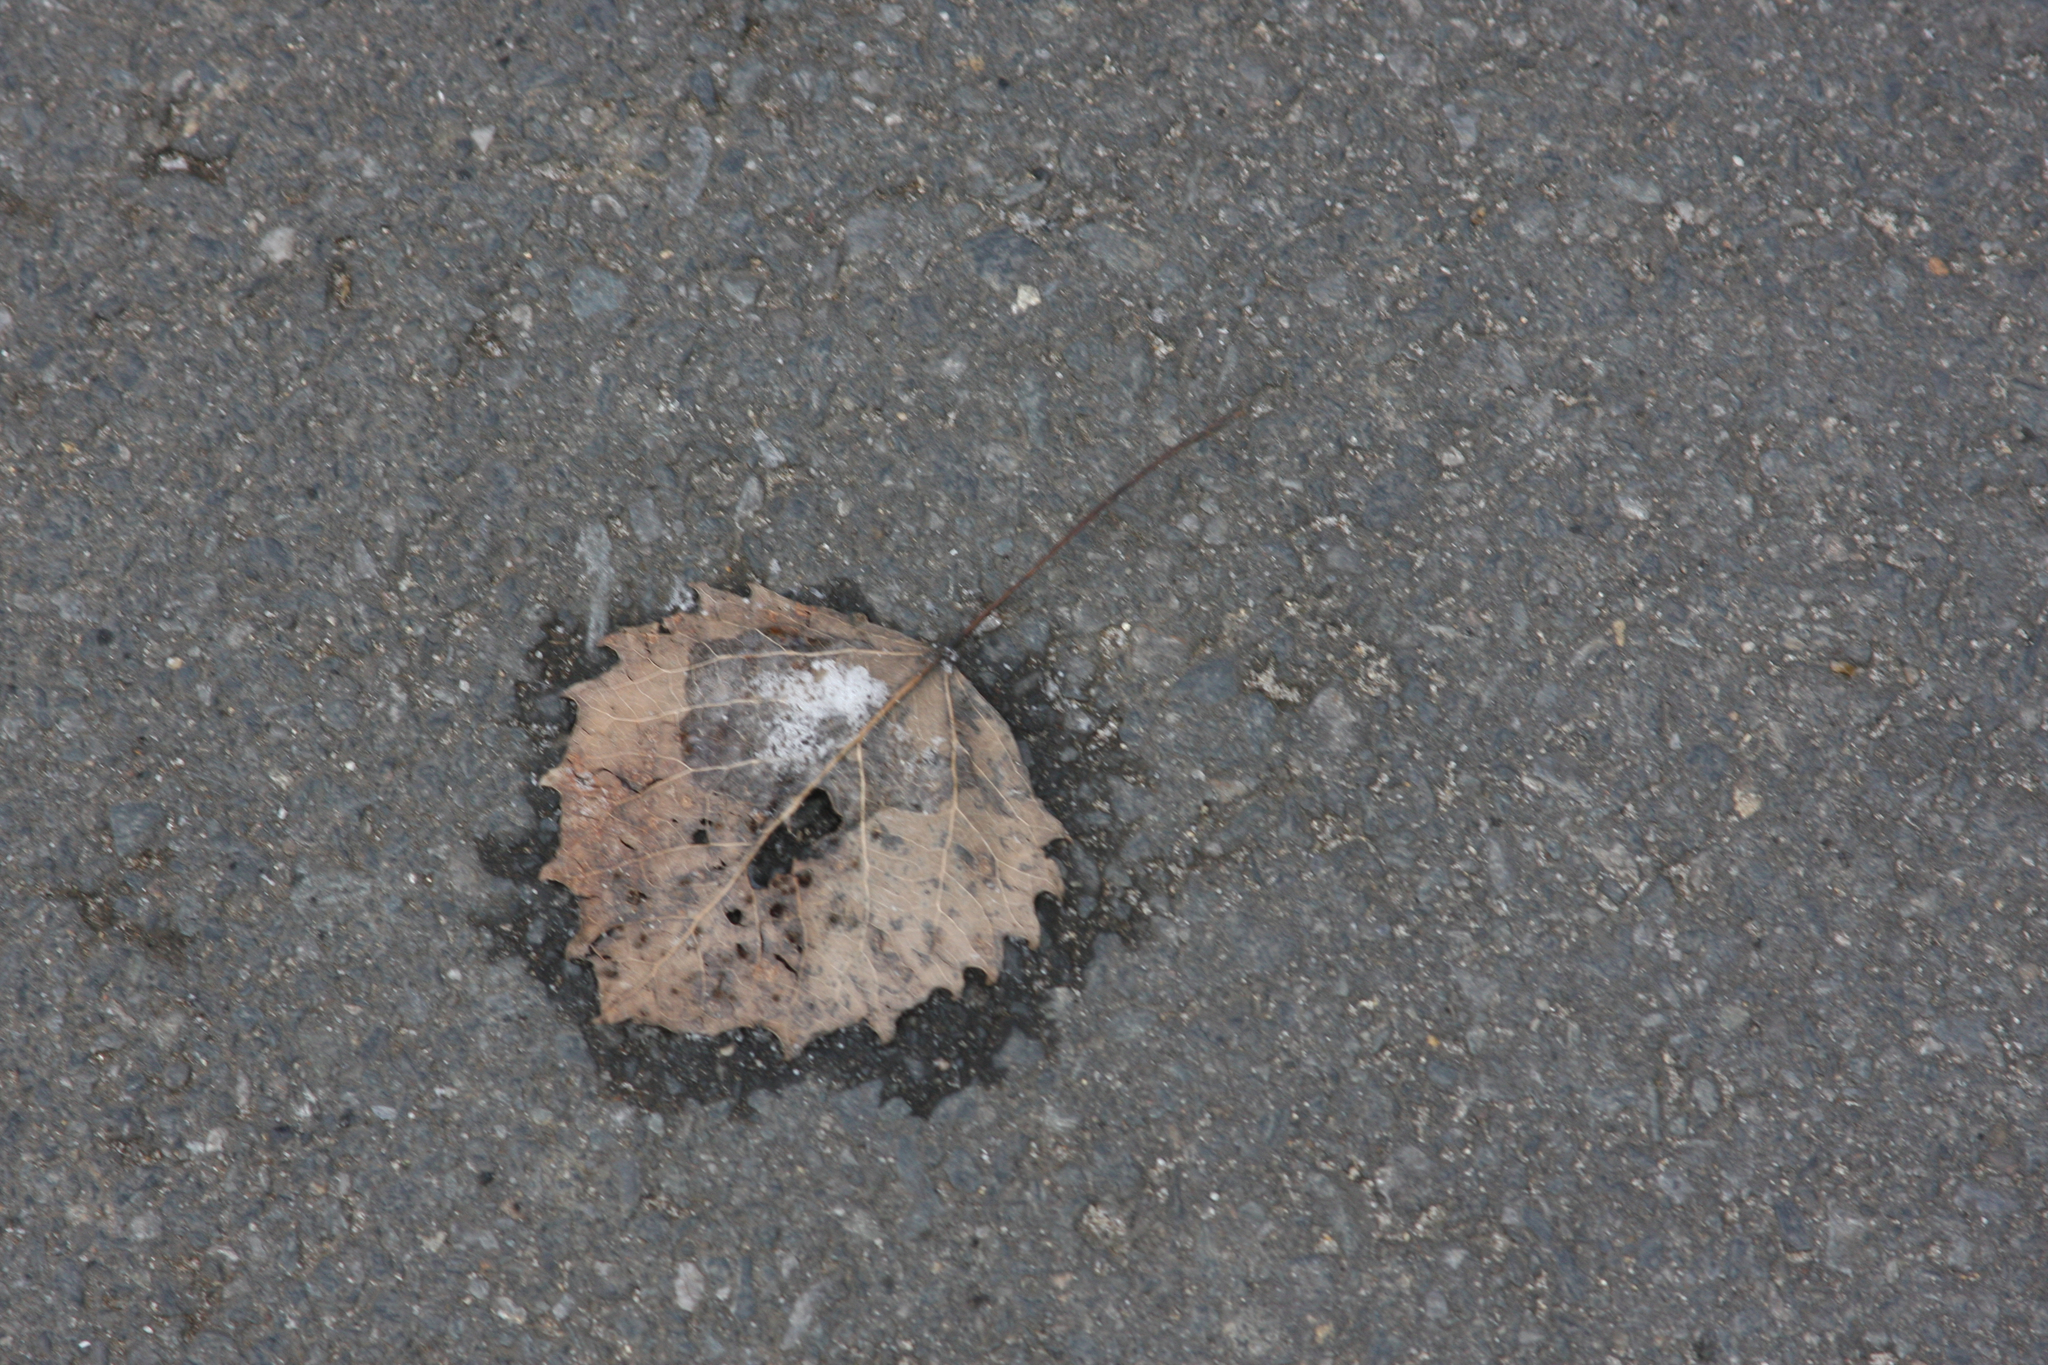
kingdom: Plantae
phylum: Tracheophyta
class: Magnoliopsida
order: Malpighiales
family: Salicaceae
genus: Populus
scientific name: Populus grandidentata
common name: Bigtooth aspen
